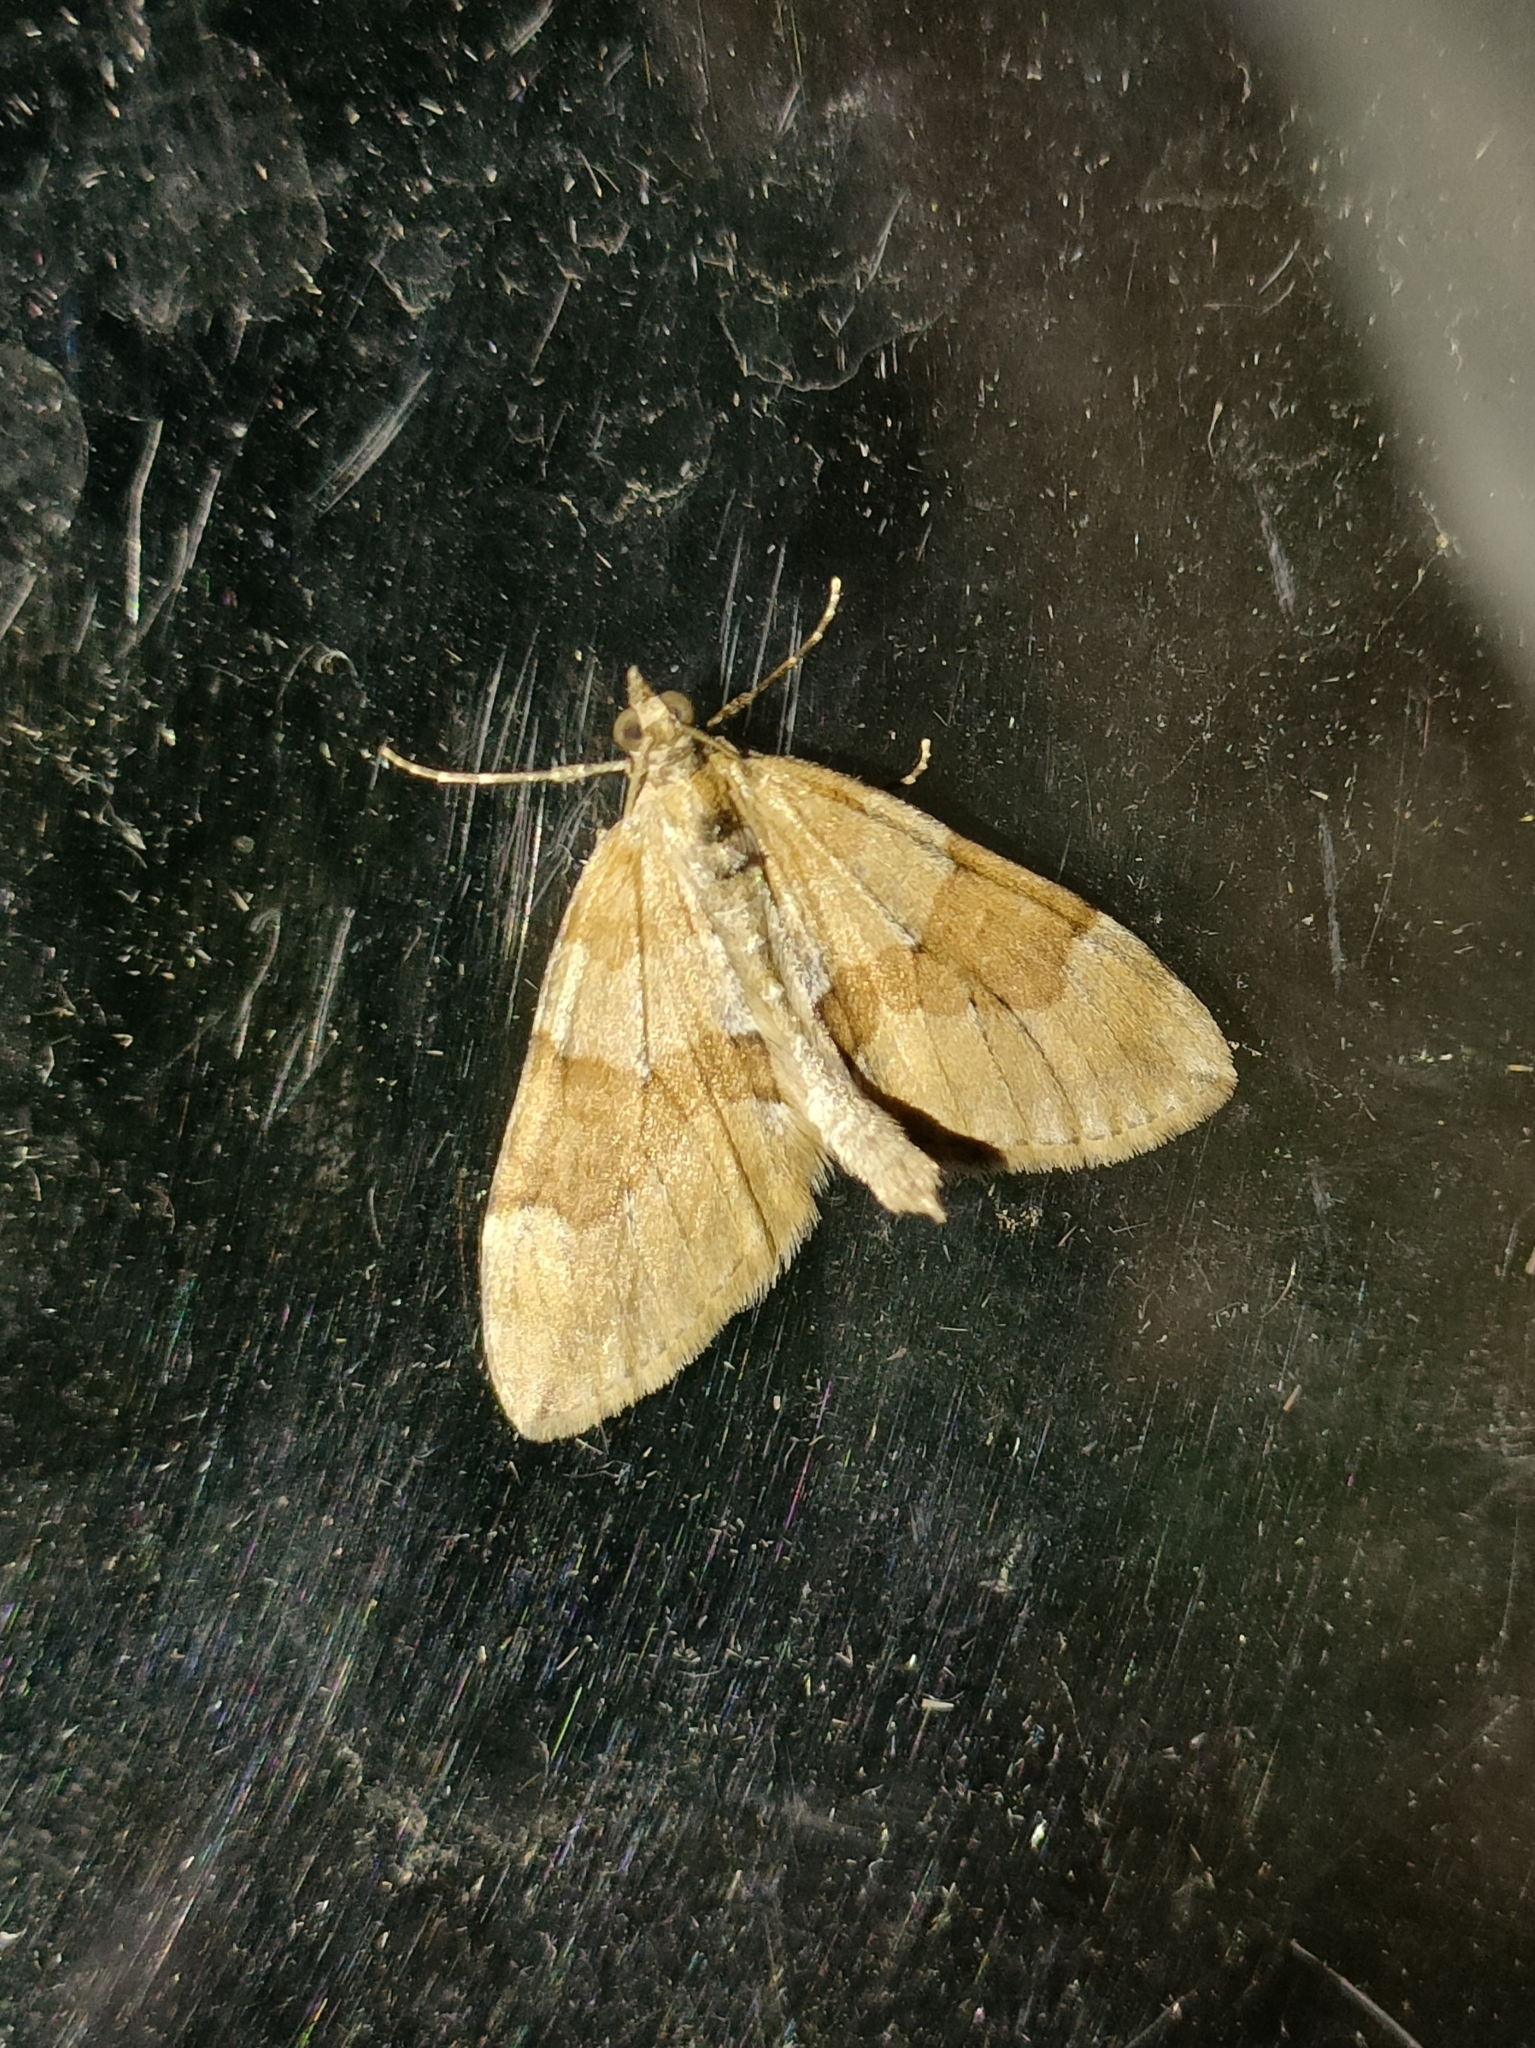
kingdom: Animalia
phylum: Arthropoda
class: Insecta
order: Lepidoptera
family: Geometridae
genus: Thera
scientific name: Thera obeliscata
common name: Grey pine carpet
